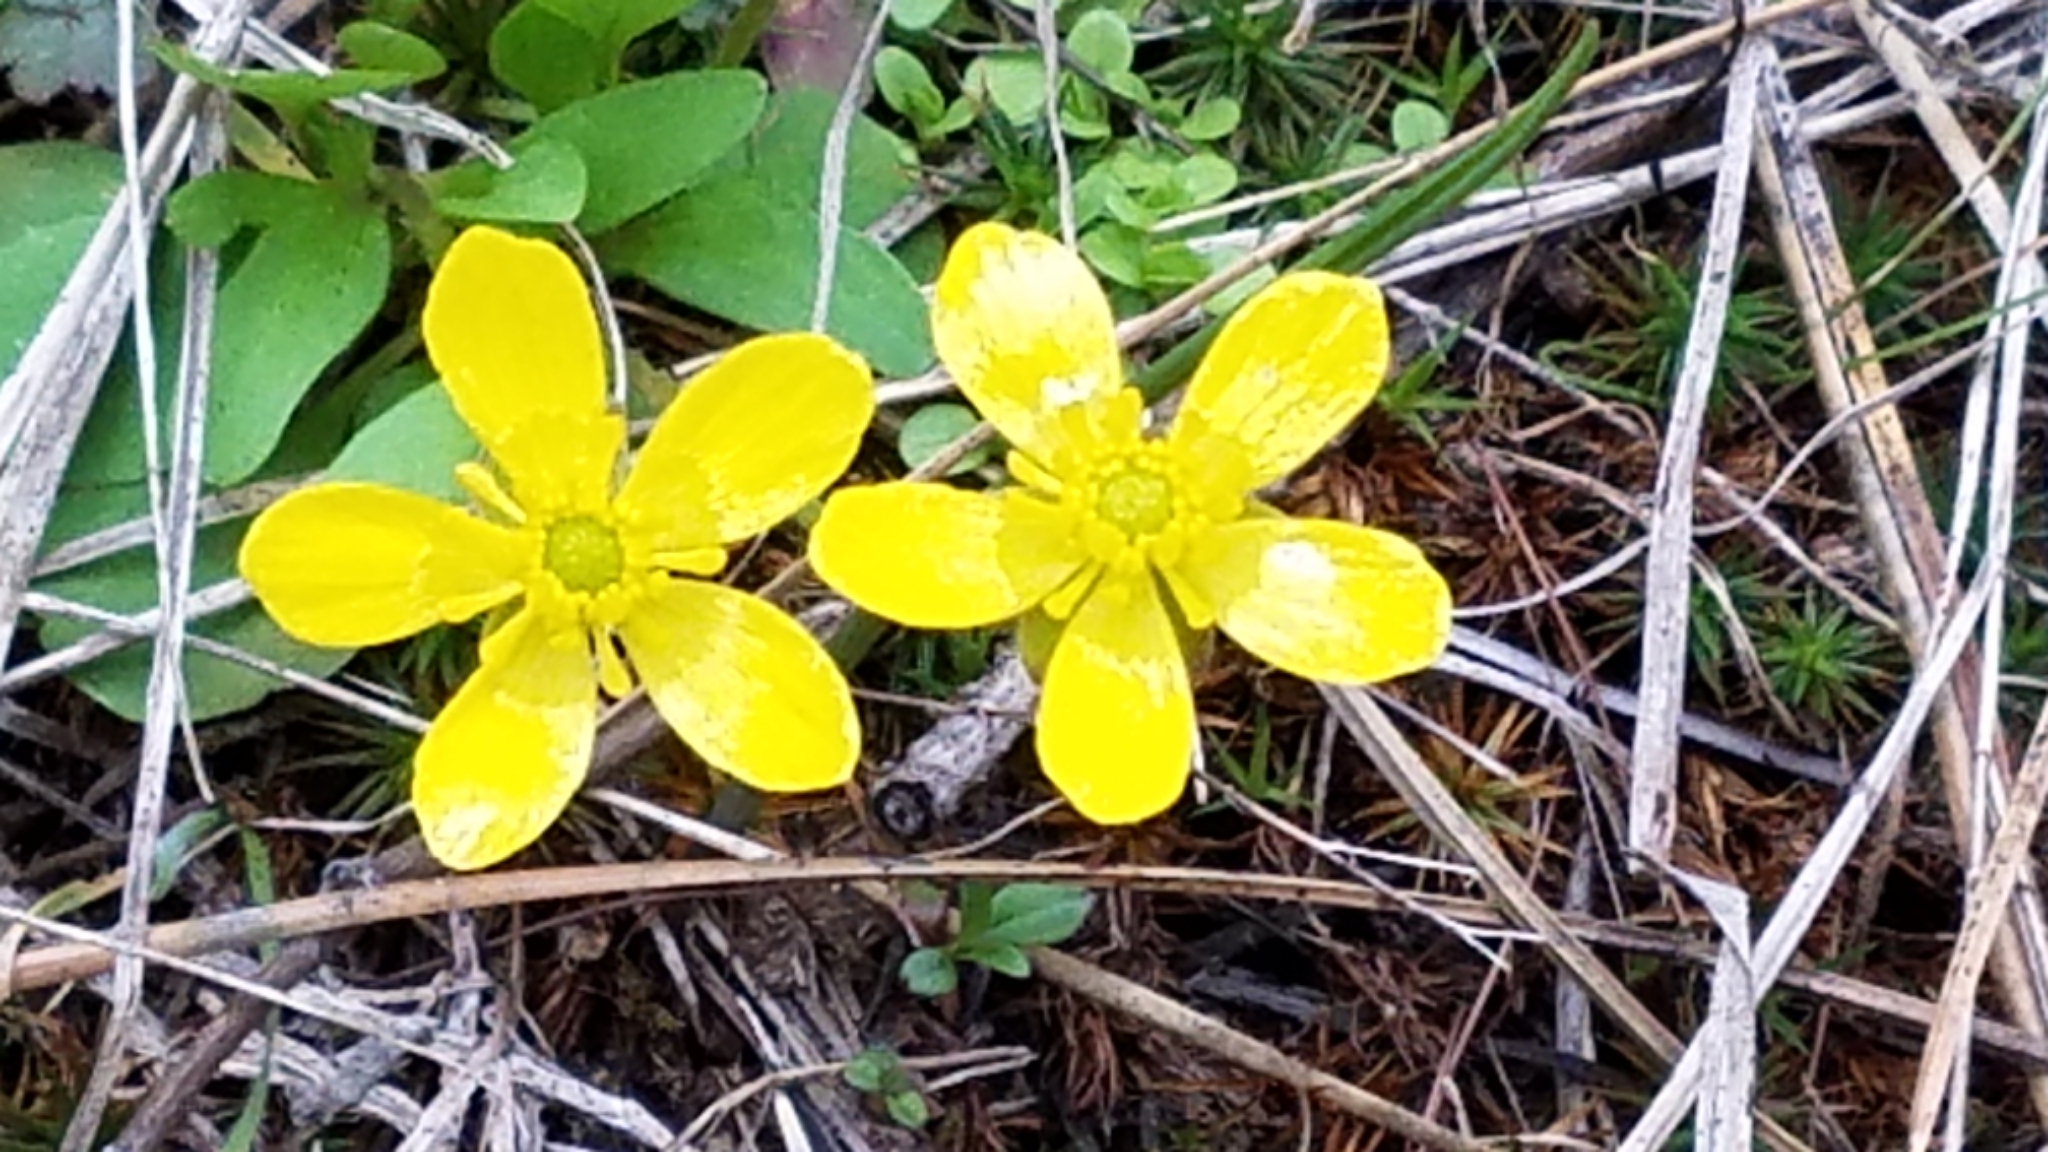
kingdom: Plantae
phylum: Tracheophyta
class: Magnoliopsida
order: Ranunculales
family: Ranunculaceae
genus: Ranunculus
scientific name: Ranunculus glaberrimus
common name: Sagebrush buttercup
